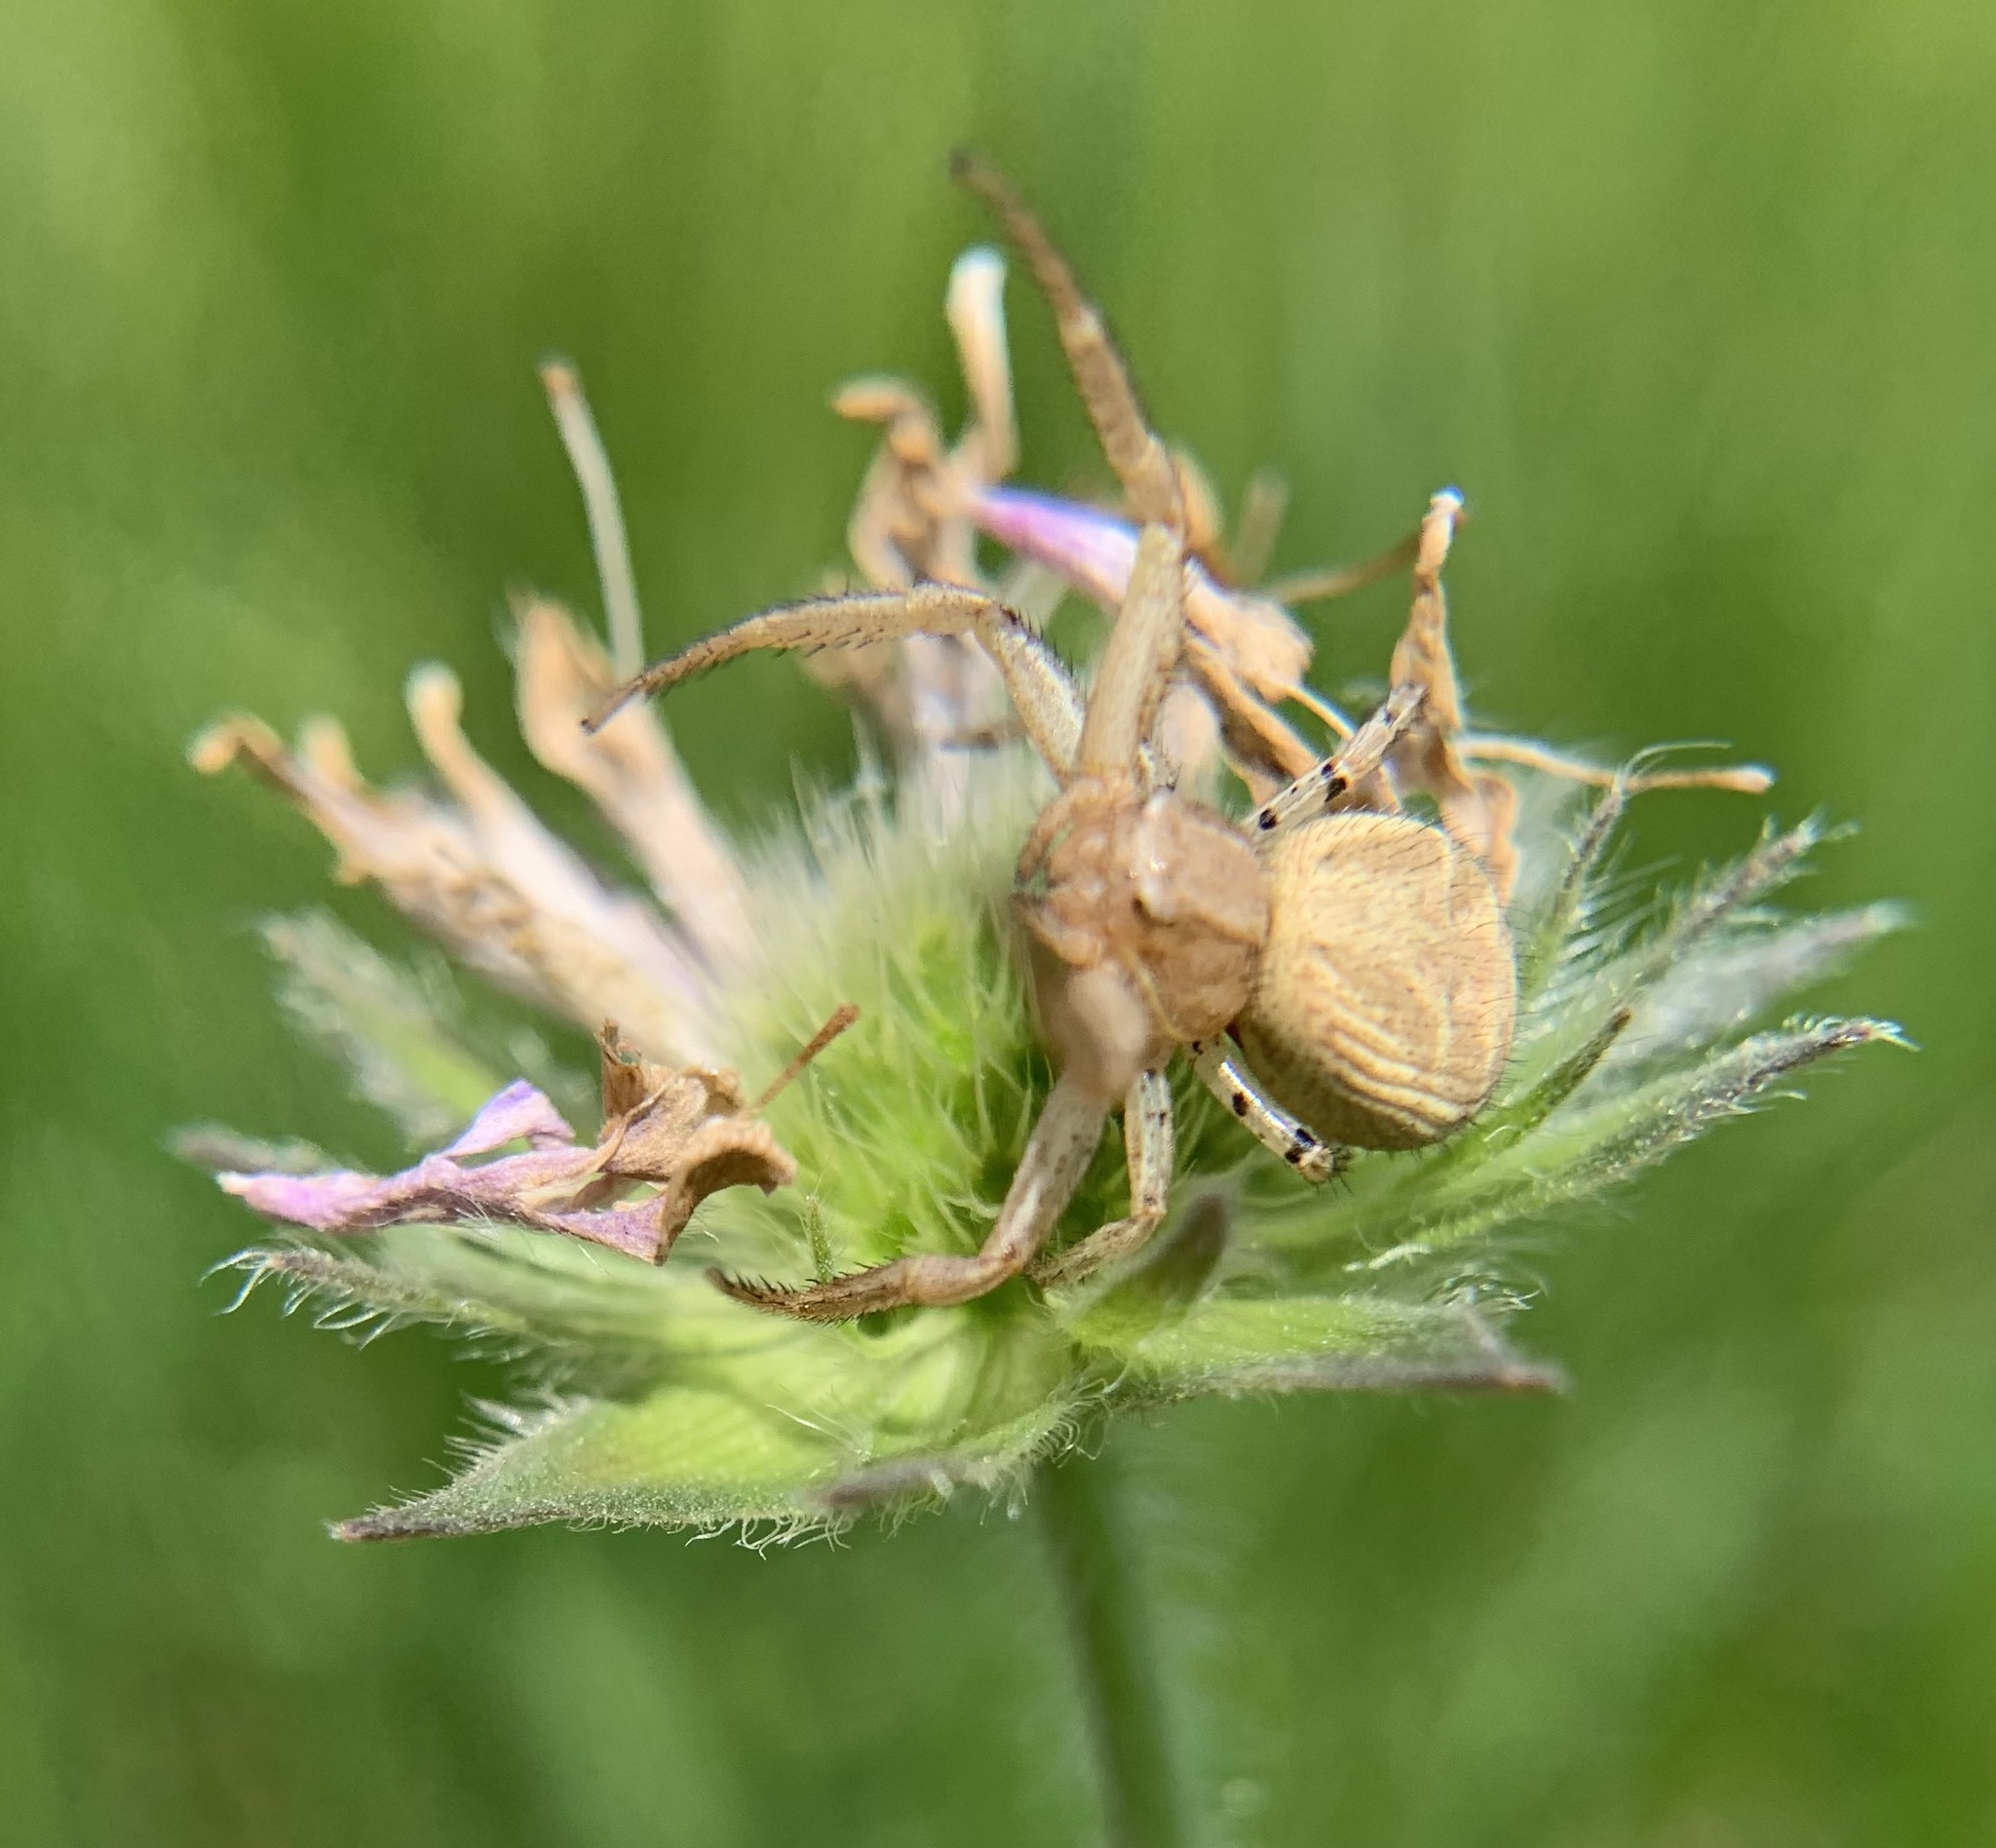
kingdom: Animalia
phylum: Arthropoda
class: Arachnida
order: Araneae
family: Thomisidae
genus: Xysticus
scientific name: Xysticus
